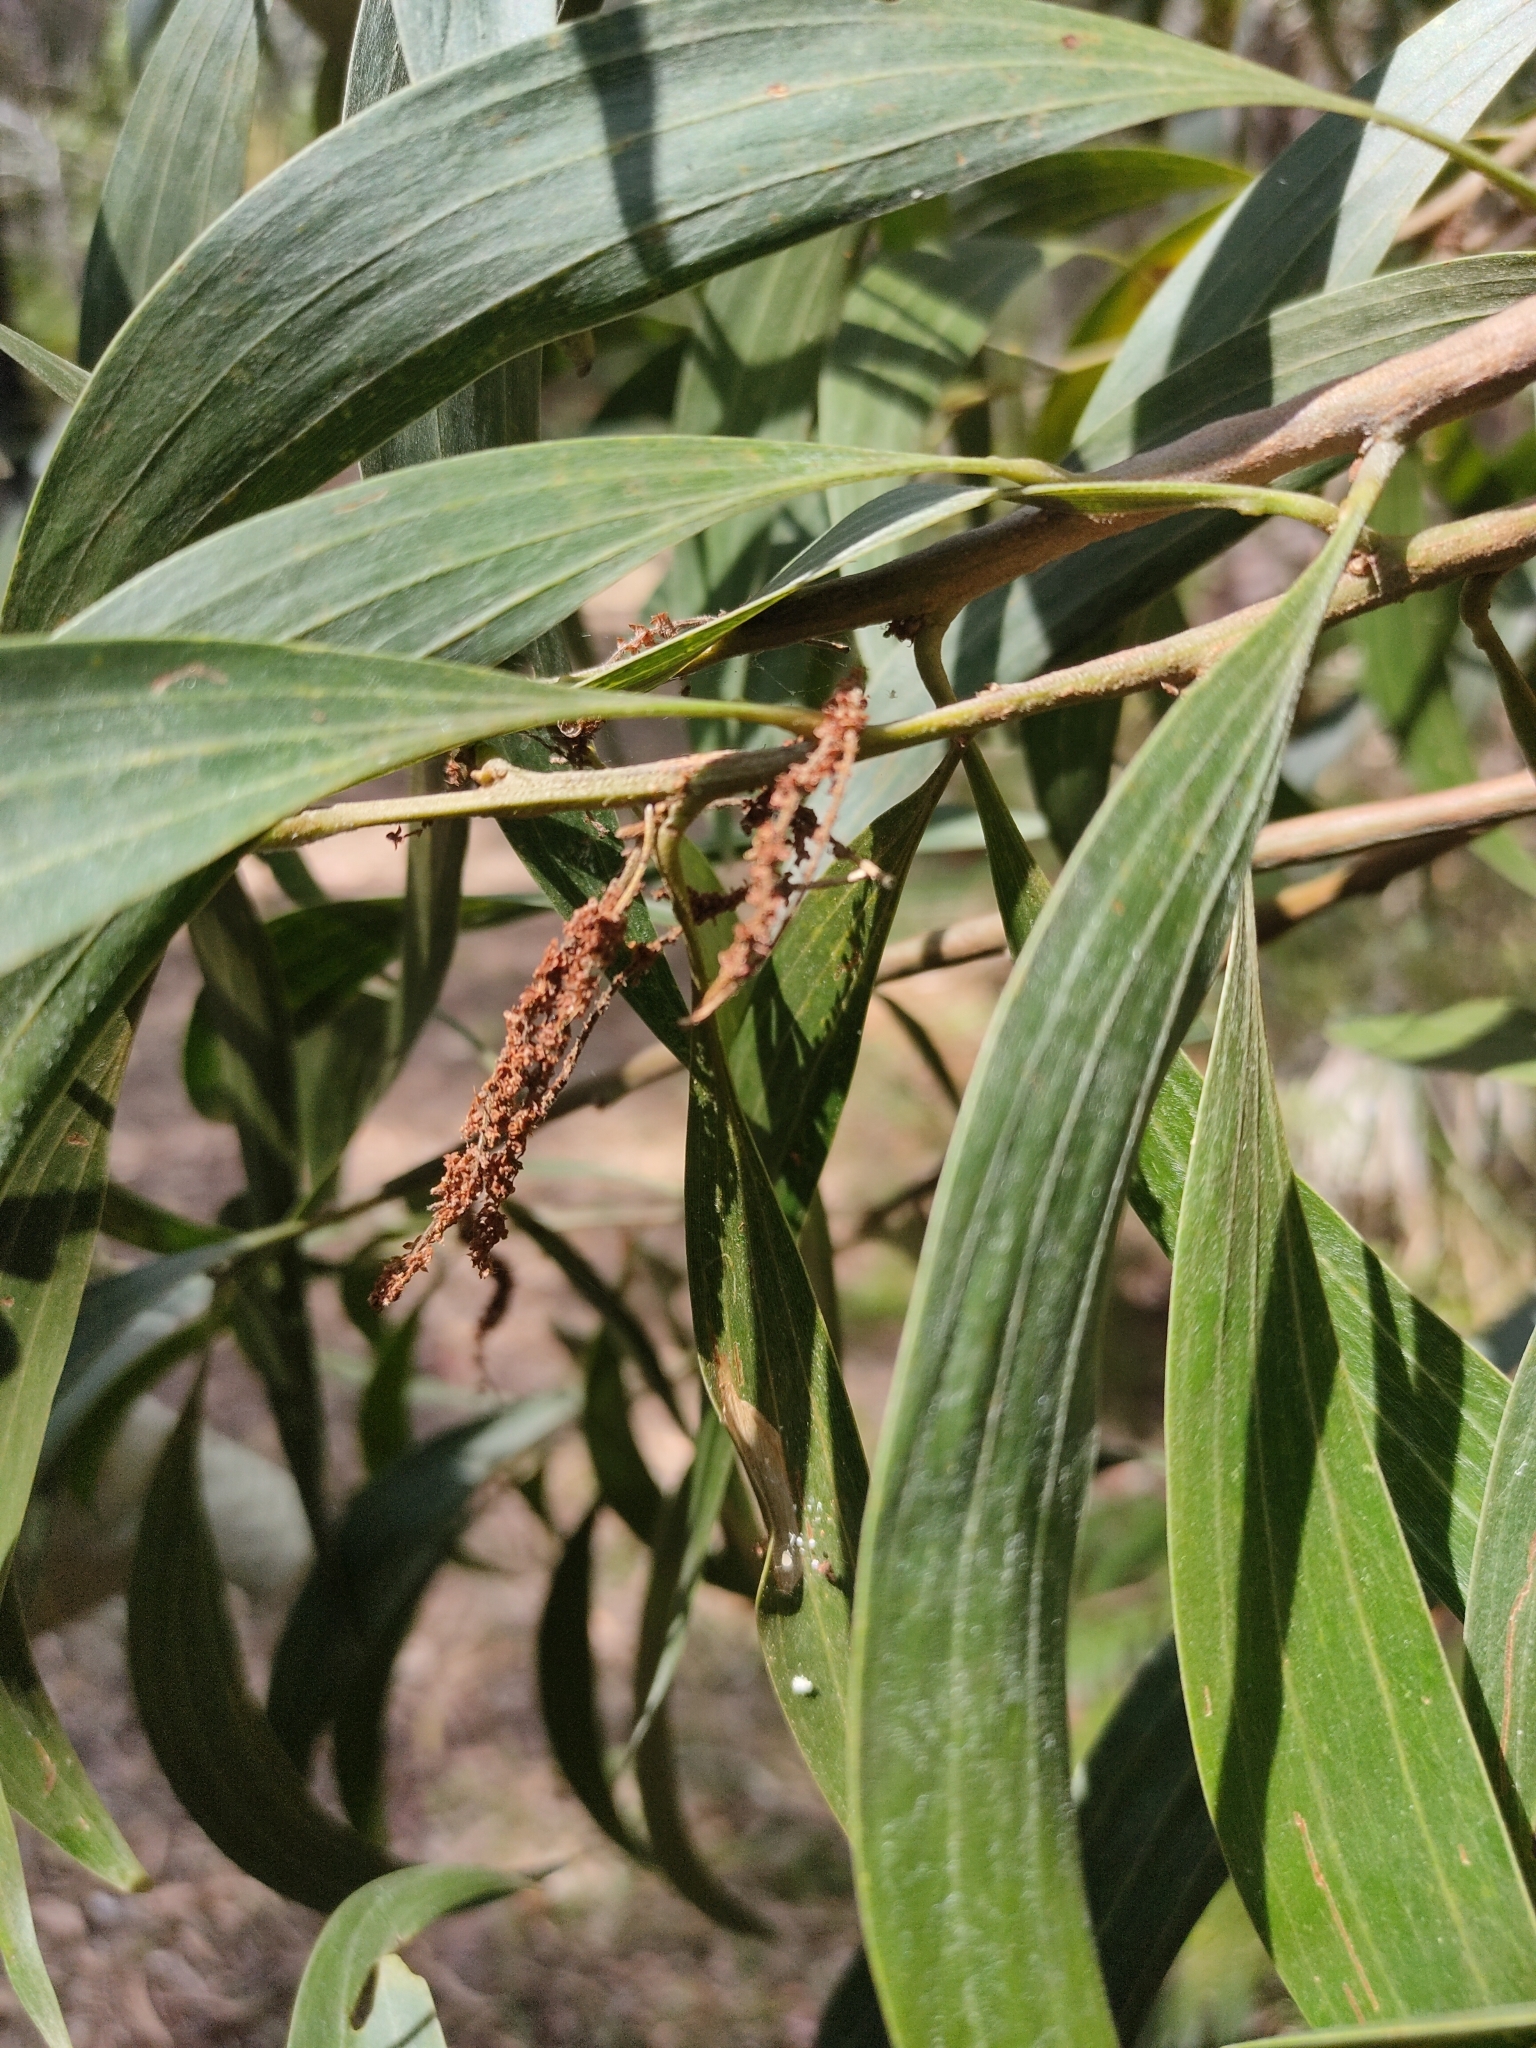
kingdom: Plantae
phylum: Tracheophyta
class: Magnoliopsida
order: Fabales
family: Fabaceae
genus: Acacia
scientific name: Acacia cincinnata
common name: Daintree wattle
